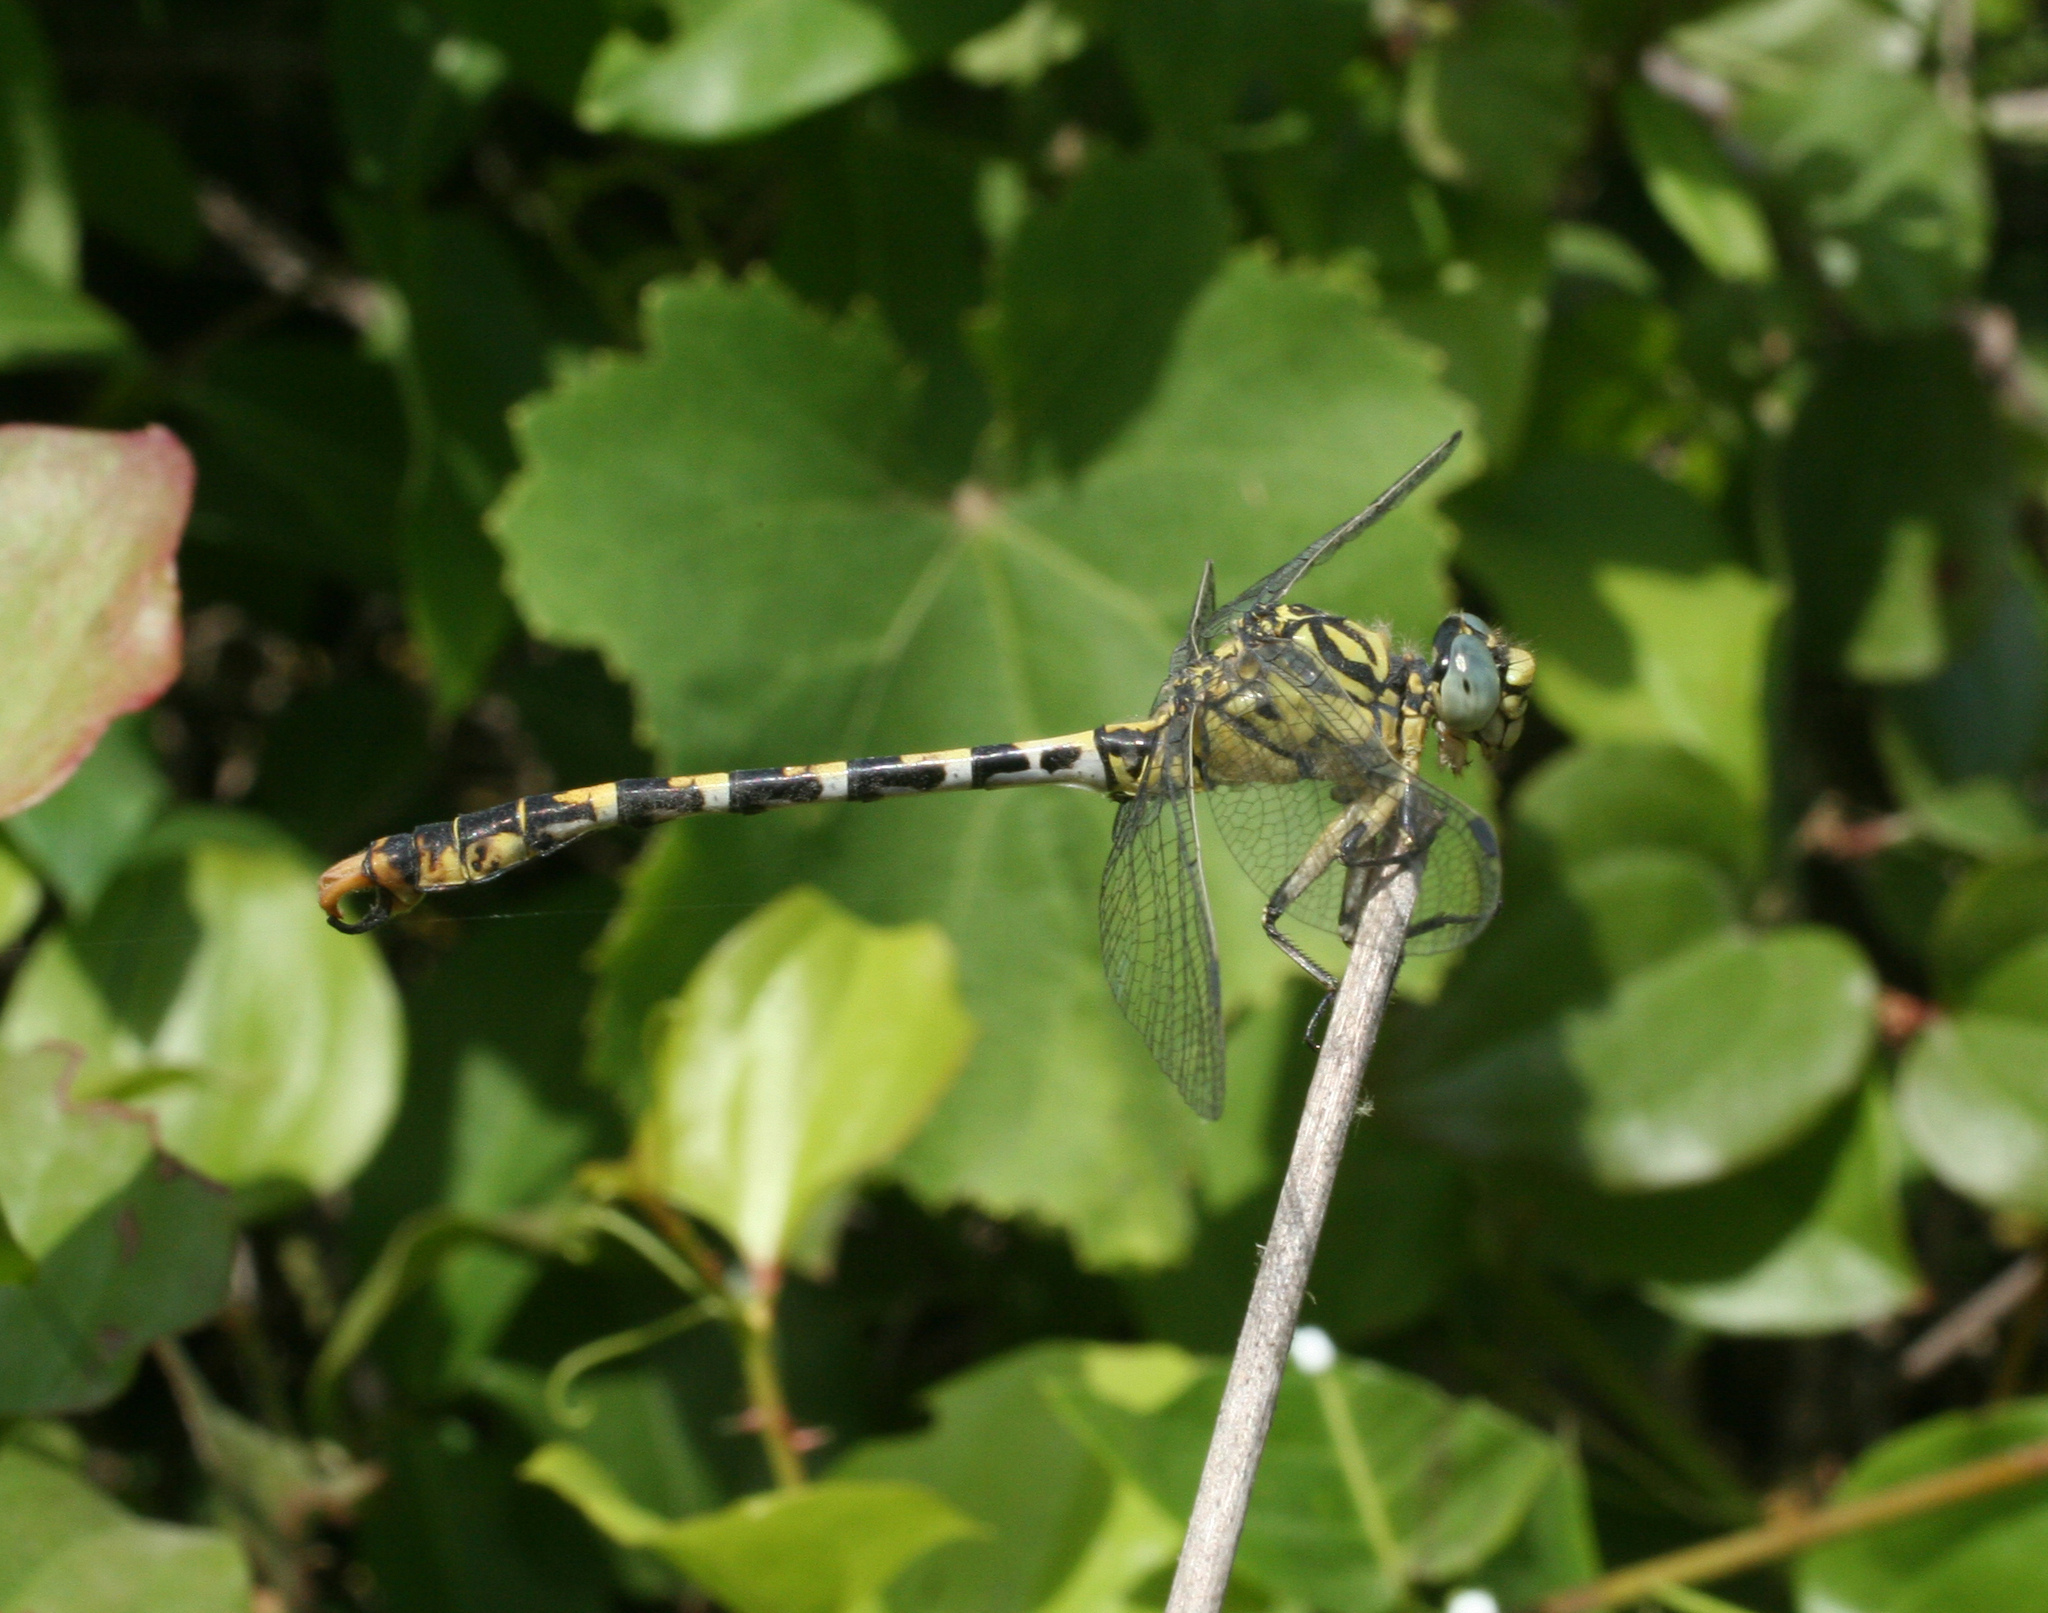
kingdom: Animalia
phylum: Arthropoda
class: Insecta
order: Odonata
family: Gomphidae
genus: Onychogomphus
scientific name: Onychogomphus forcipatus
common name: Small pincertail
